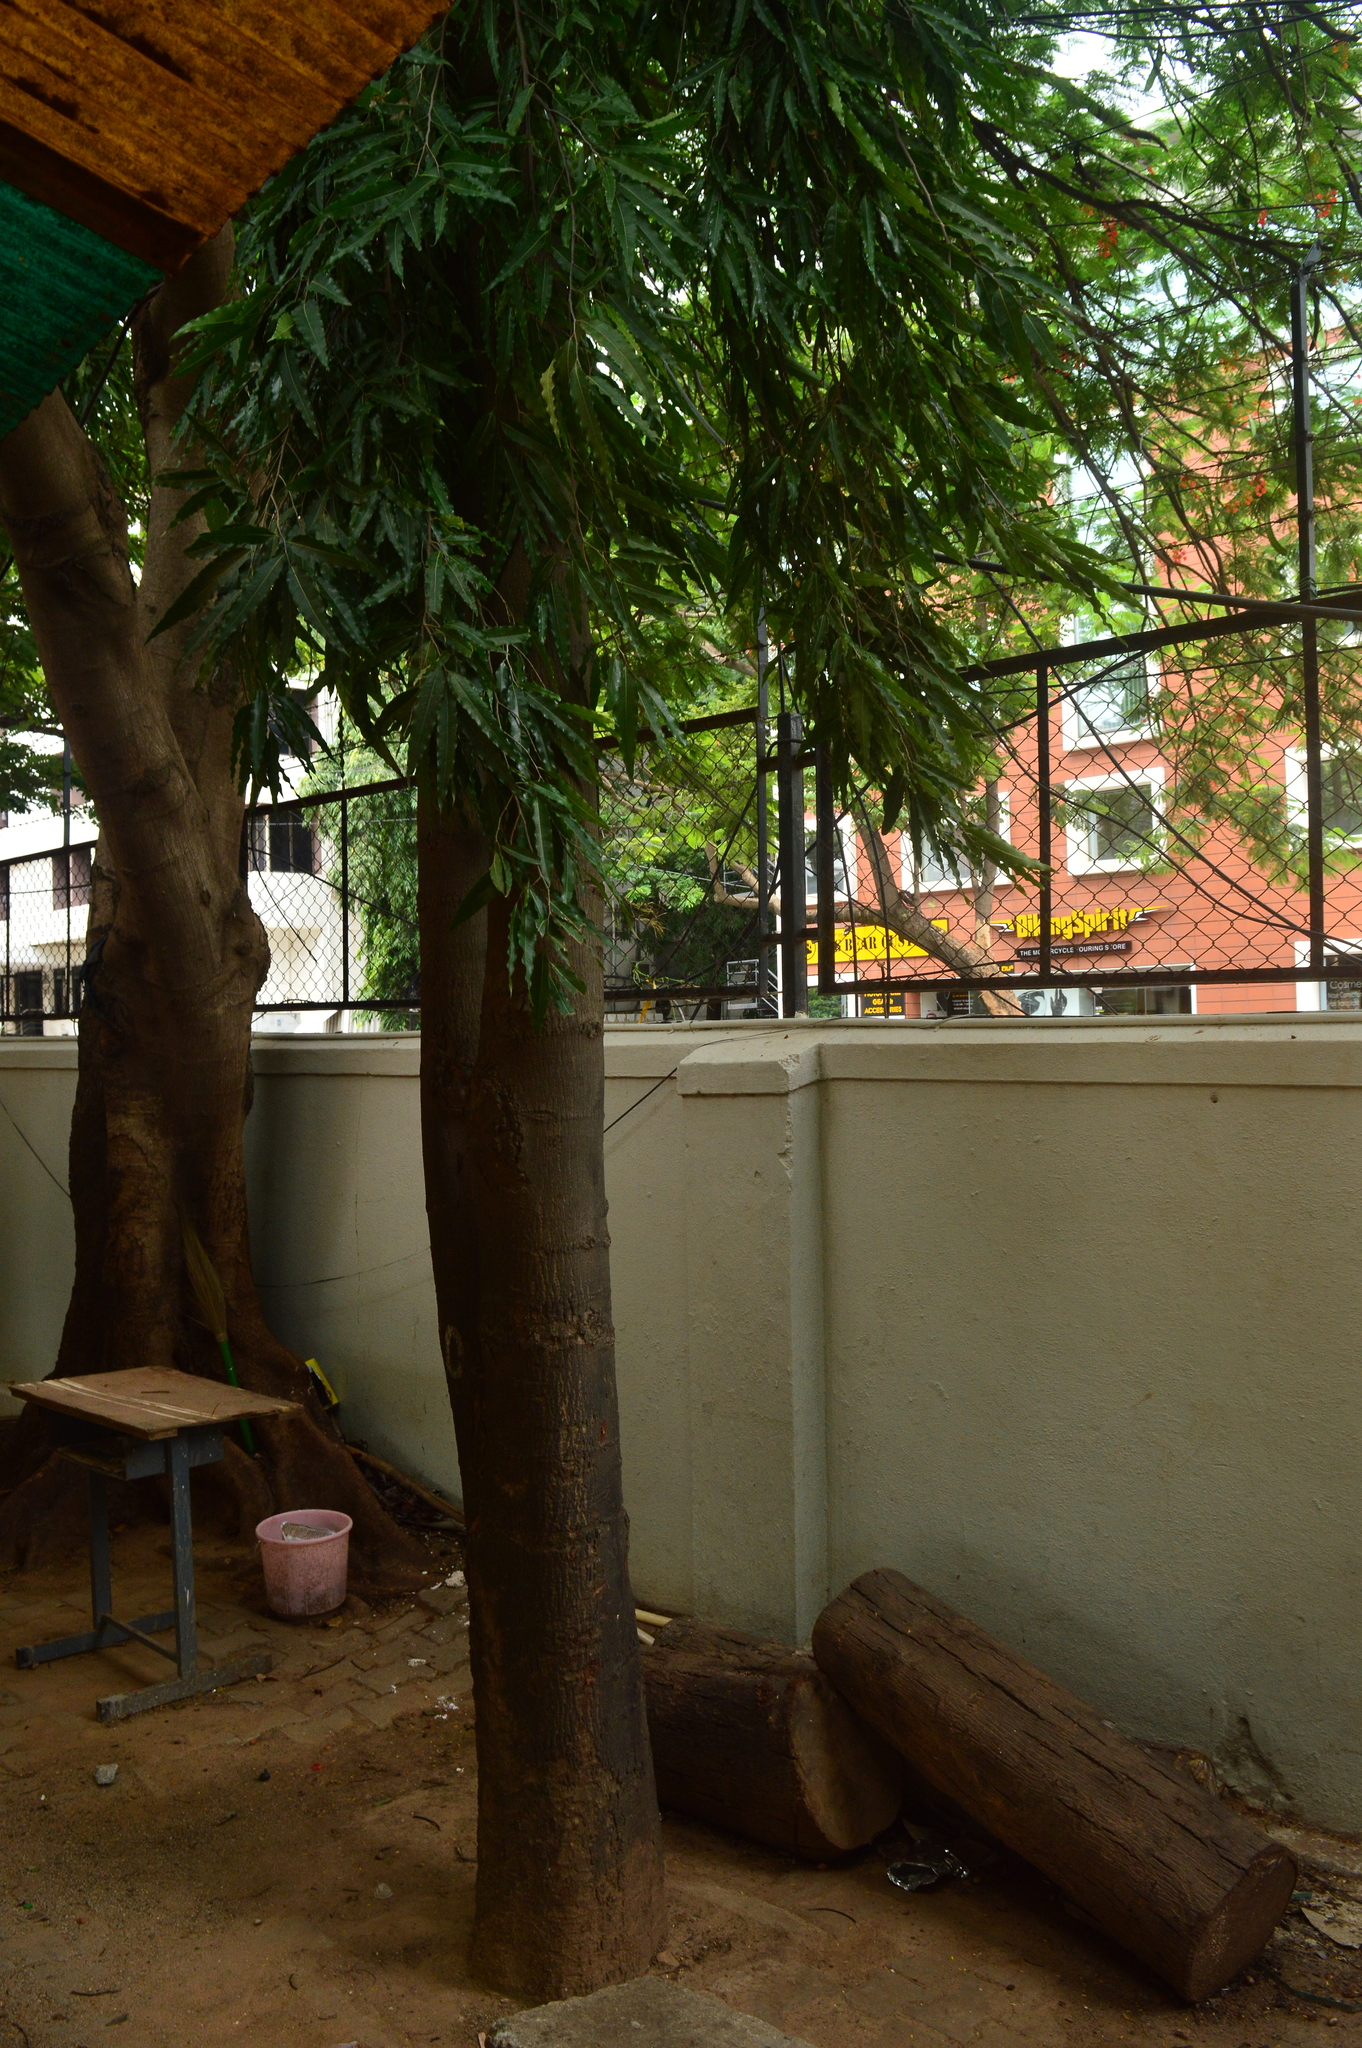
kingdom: Plantae
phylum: Tracheophyta
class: Magnoliopsida
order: Magnoliales
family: Annonaceae
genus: Polyalthia
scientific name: Polyalthia longifolia
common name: Cemetery-tree
